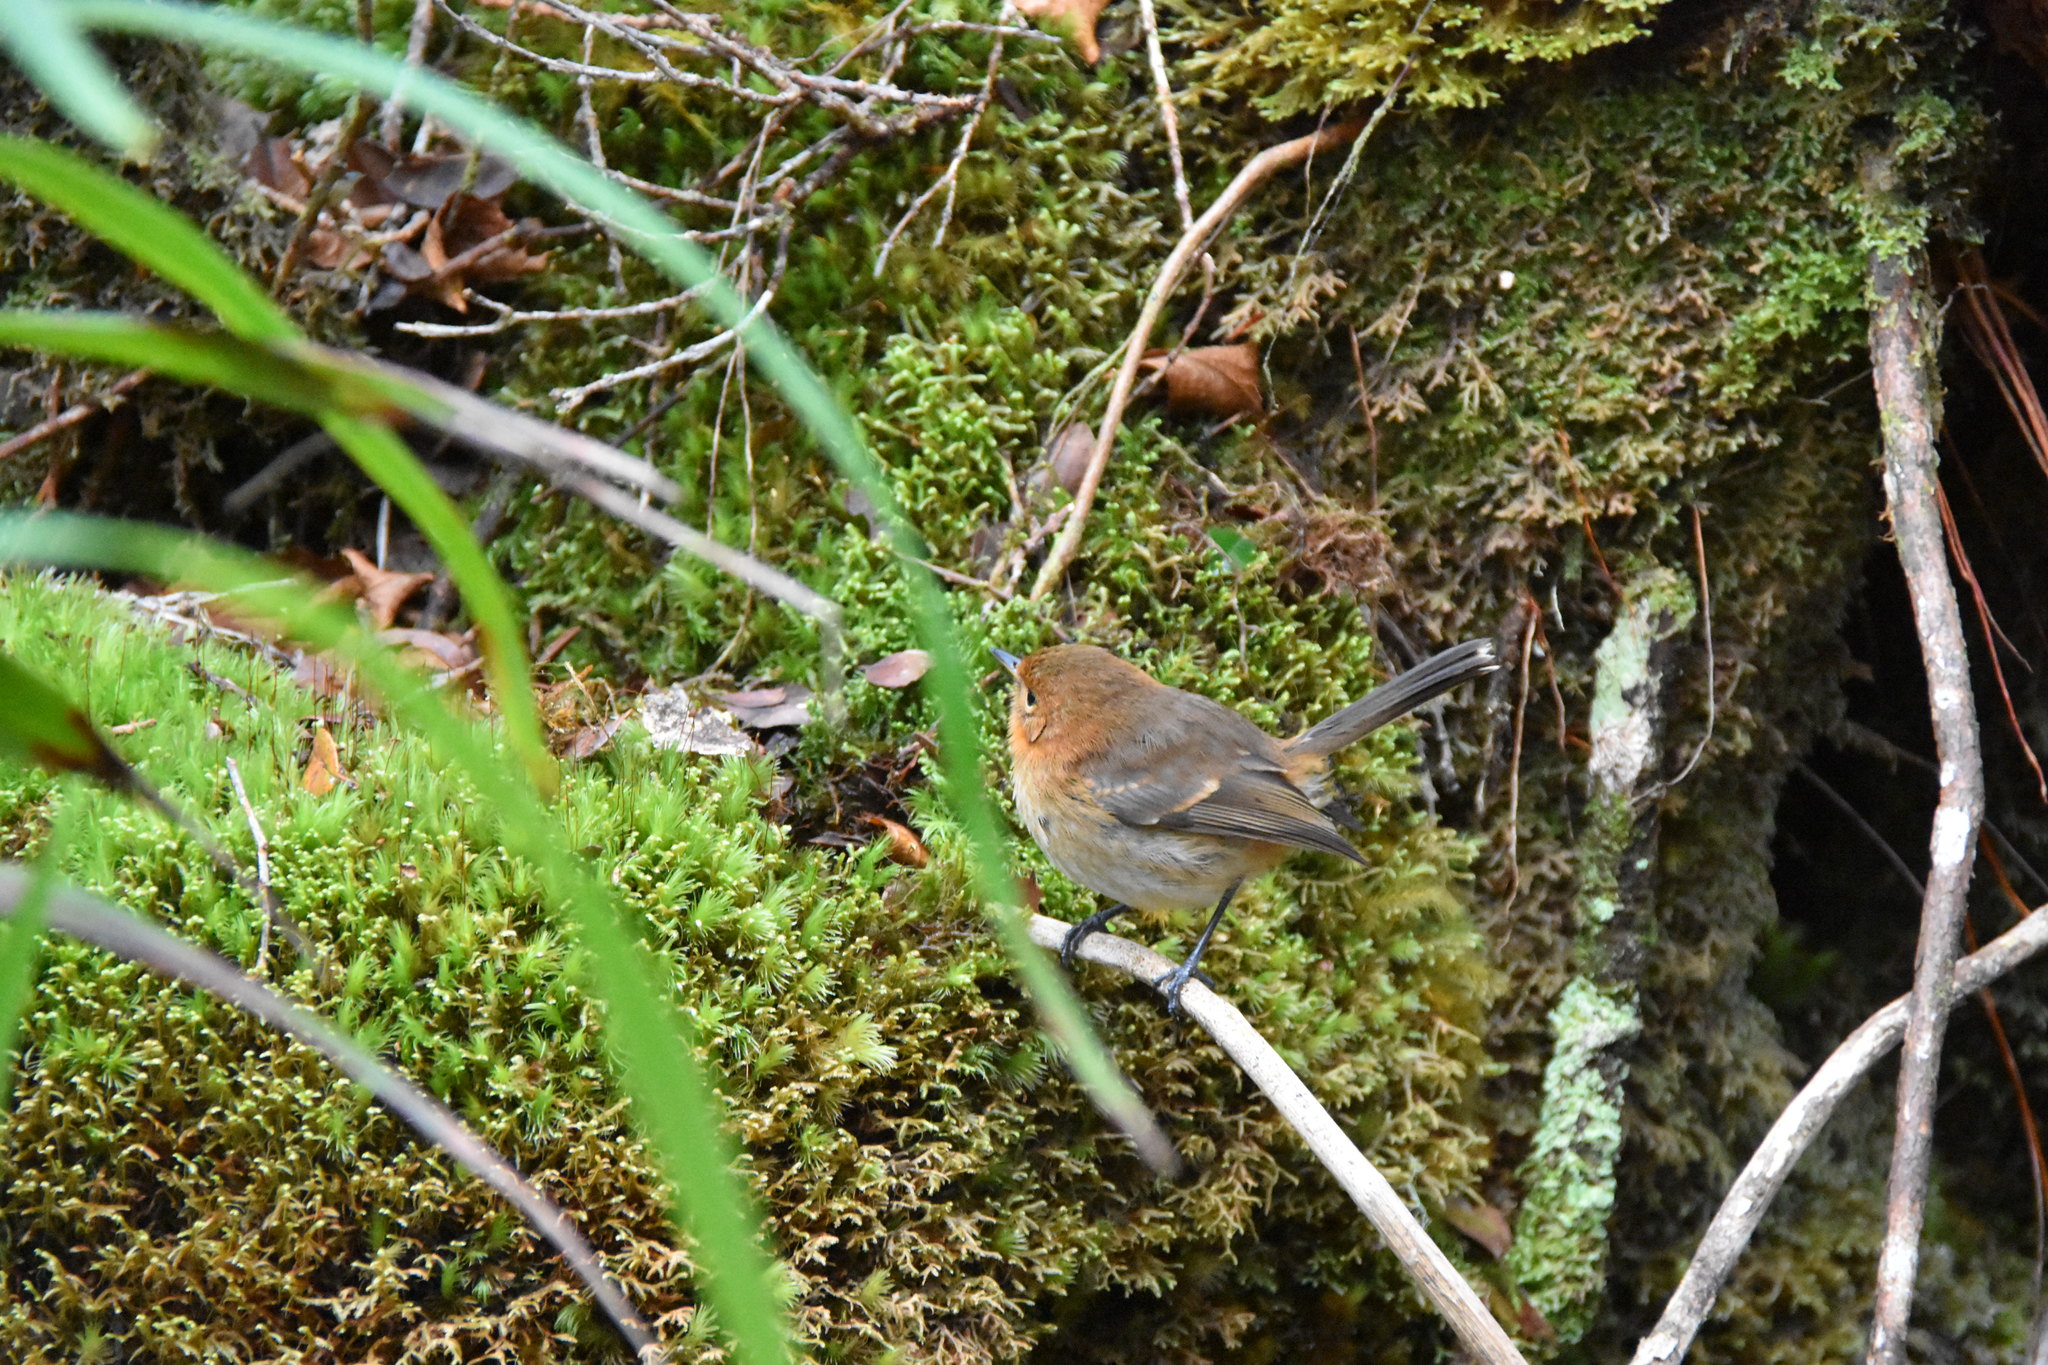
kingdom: Animalia
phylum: Chordata
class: Aves
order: Passeriformes
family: Monarchidae
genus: Chasiempis
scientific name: Chasiempis sclateri
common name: Kauai elepaio
